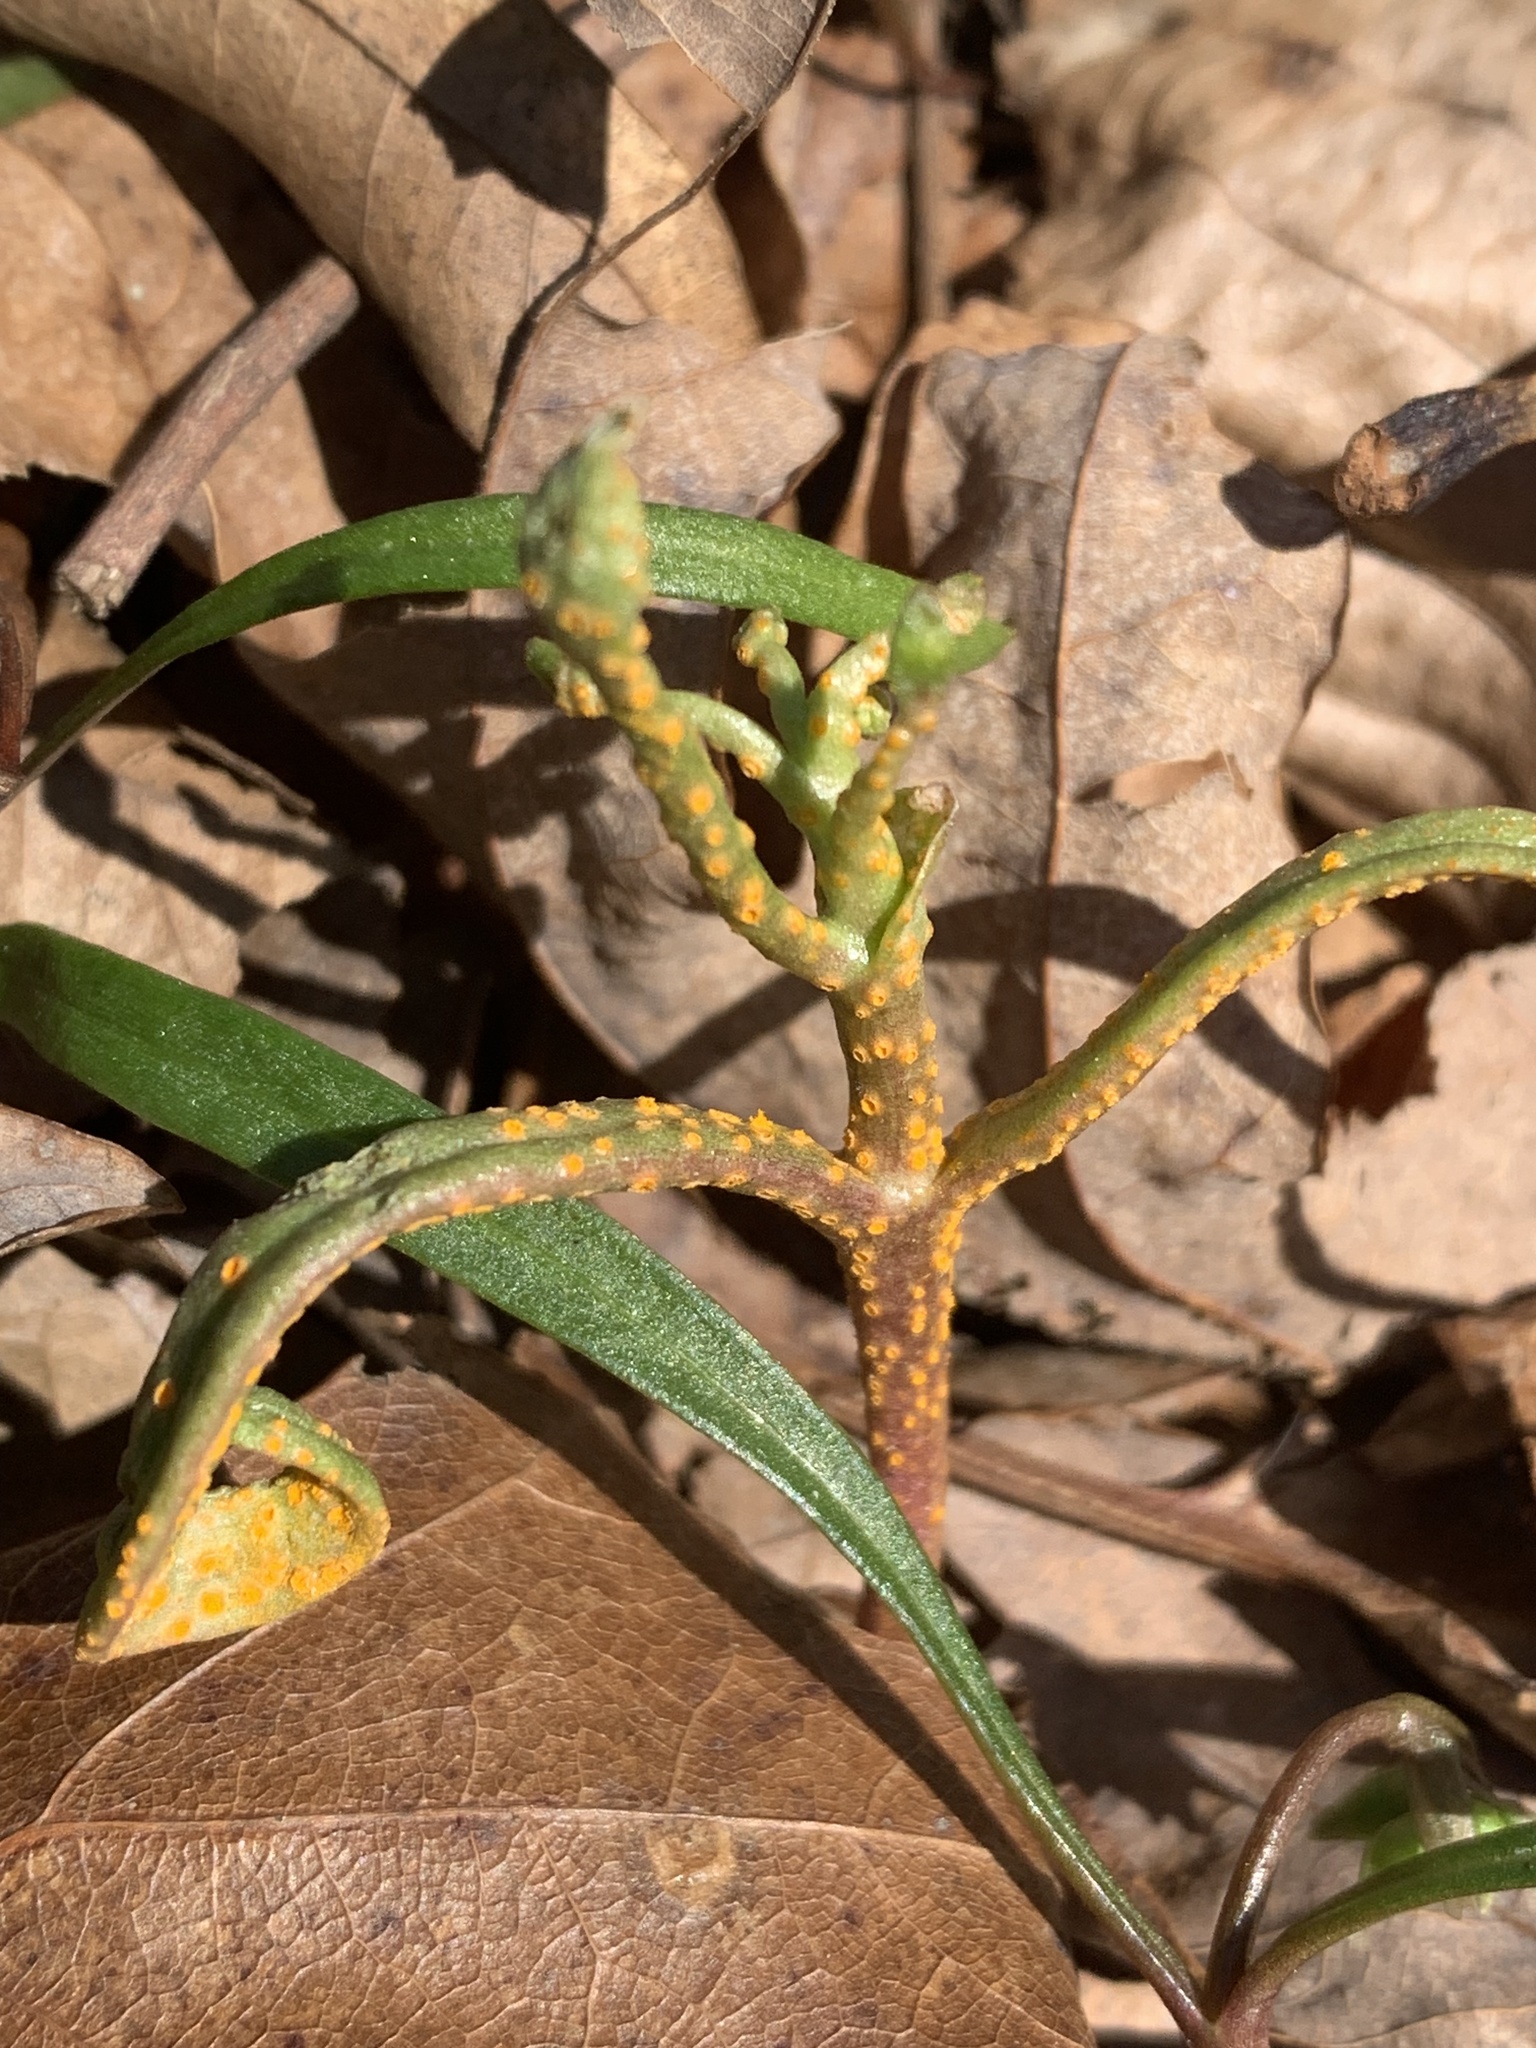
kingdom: Fungi
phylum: Basidiomycota
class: Pucciniomycetes
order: Pucciniales
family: Pucciniaceae
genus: Puccinia
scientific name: Puccinia mariae-wilsoniae
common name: Spring beauty rust
